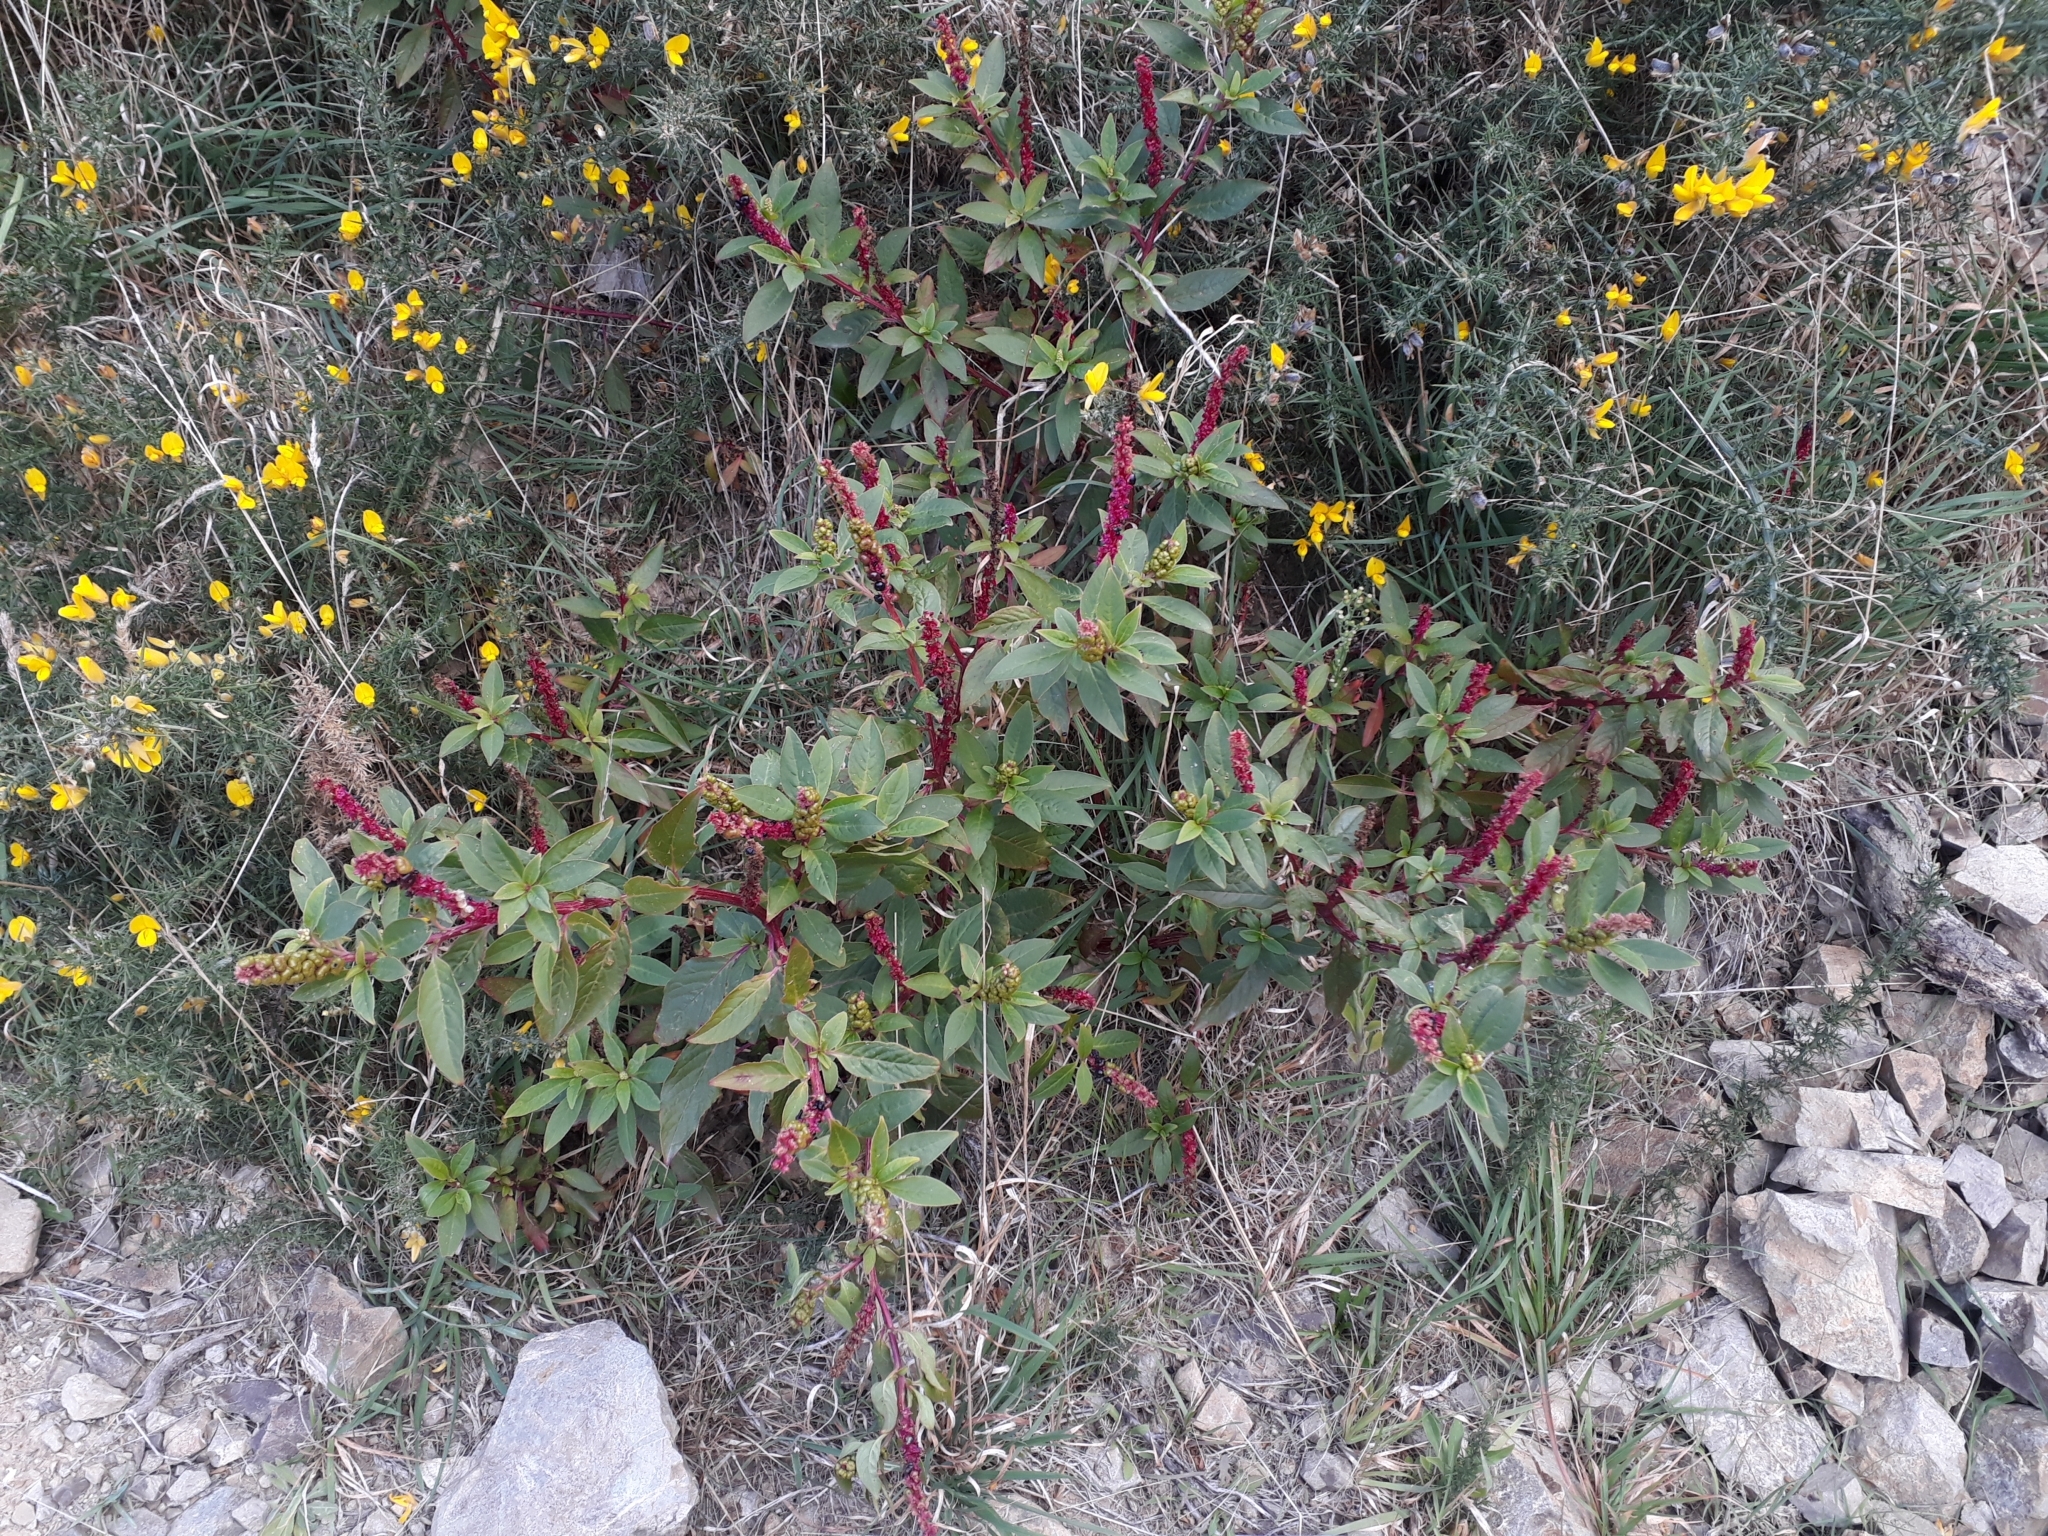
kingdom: Plantae
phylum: Tracheophyta
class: Magnoliopsida
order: Caryophyllales
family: Phytolaccaceae
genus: Phytolacca
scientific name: Phytolacca icosandra
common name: Button pokeweed
